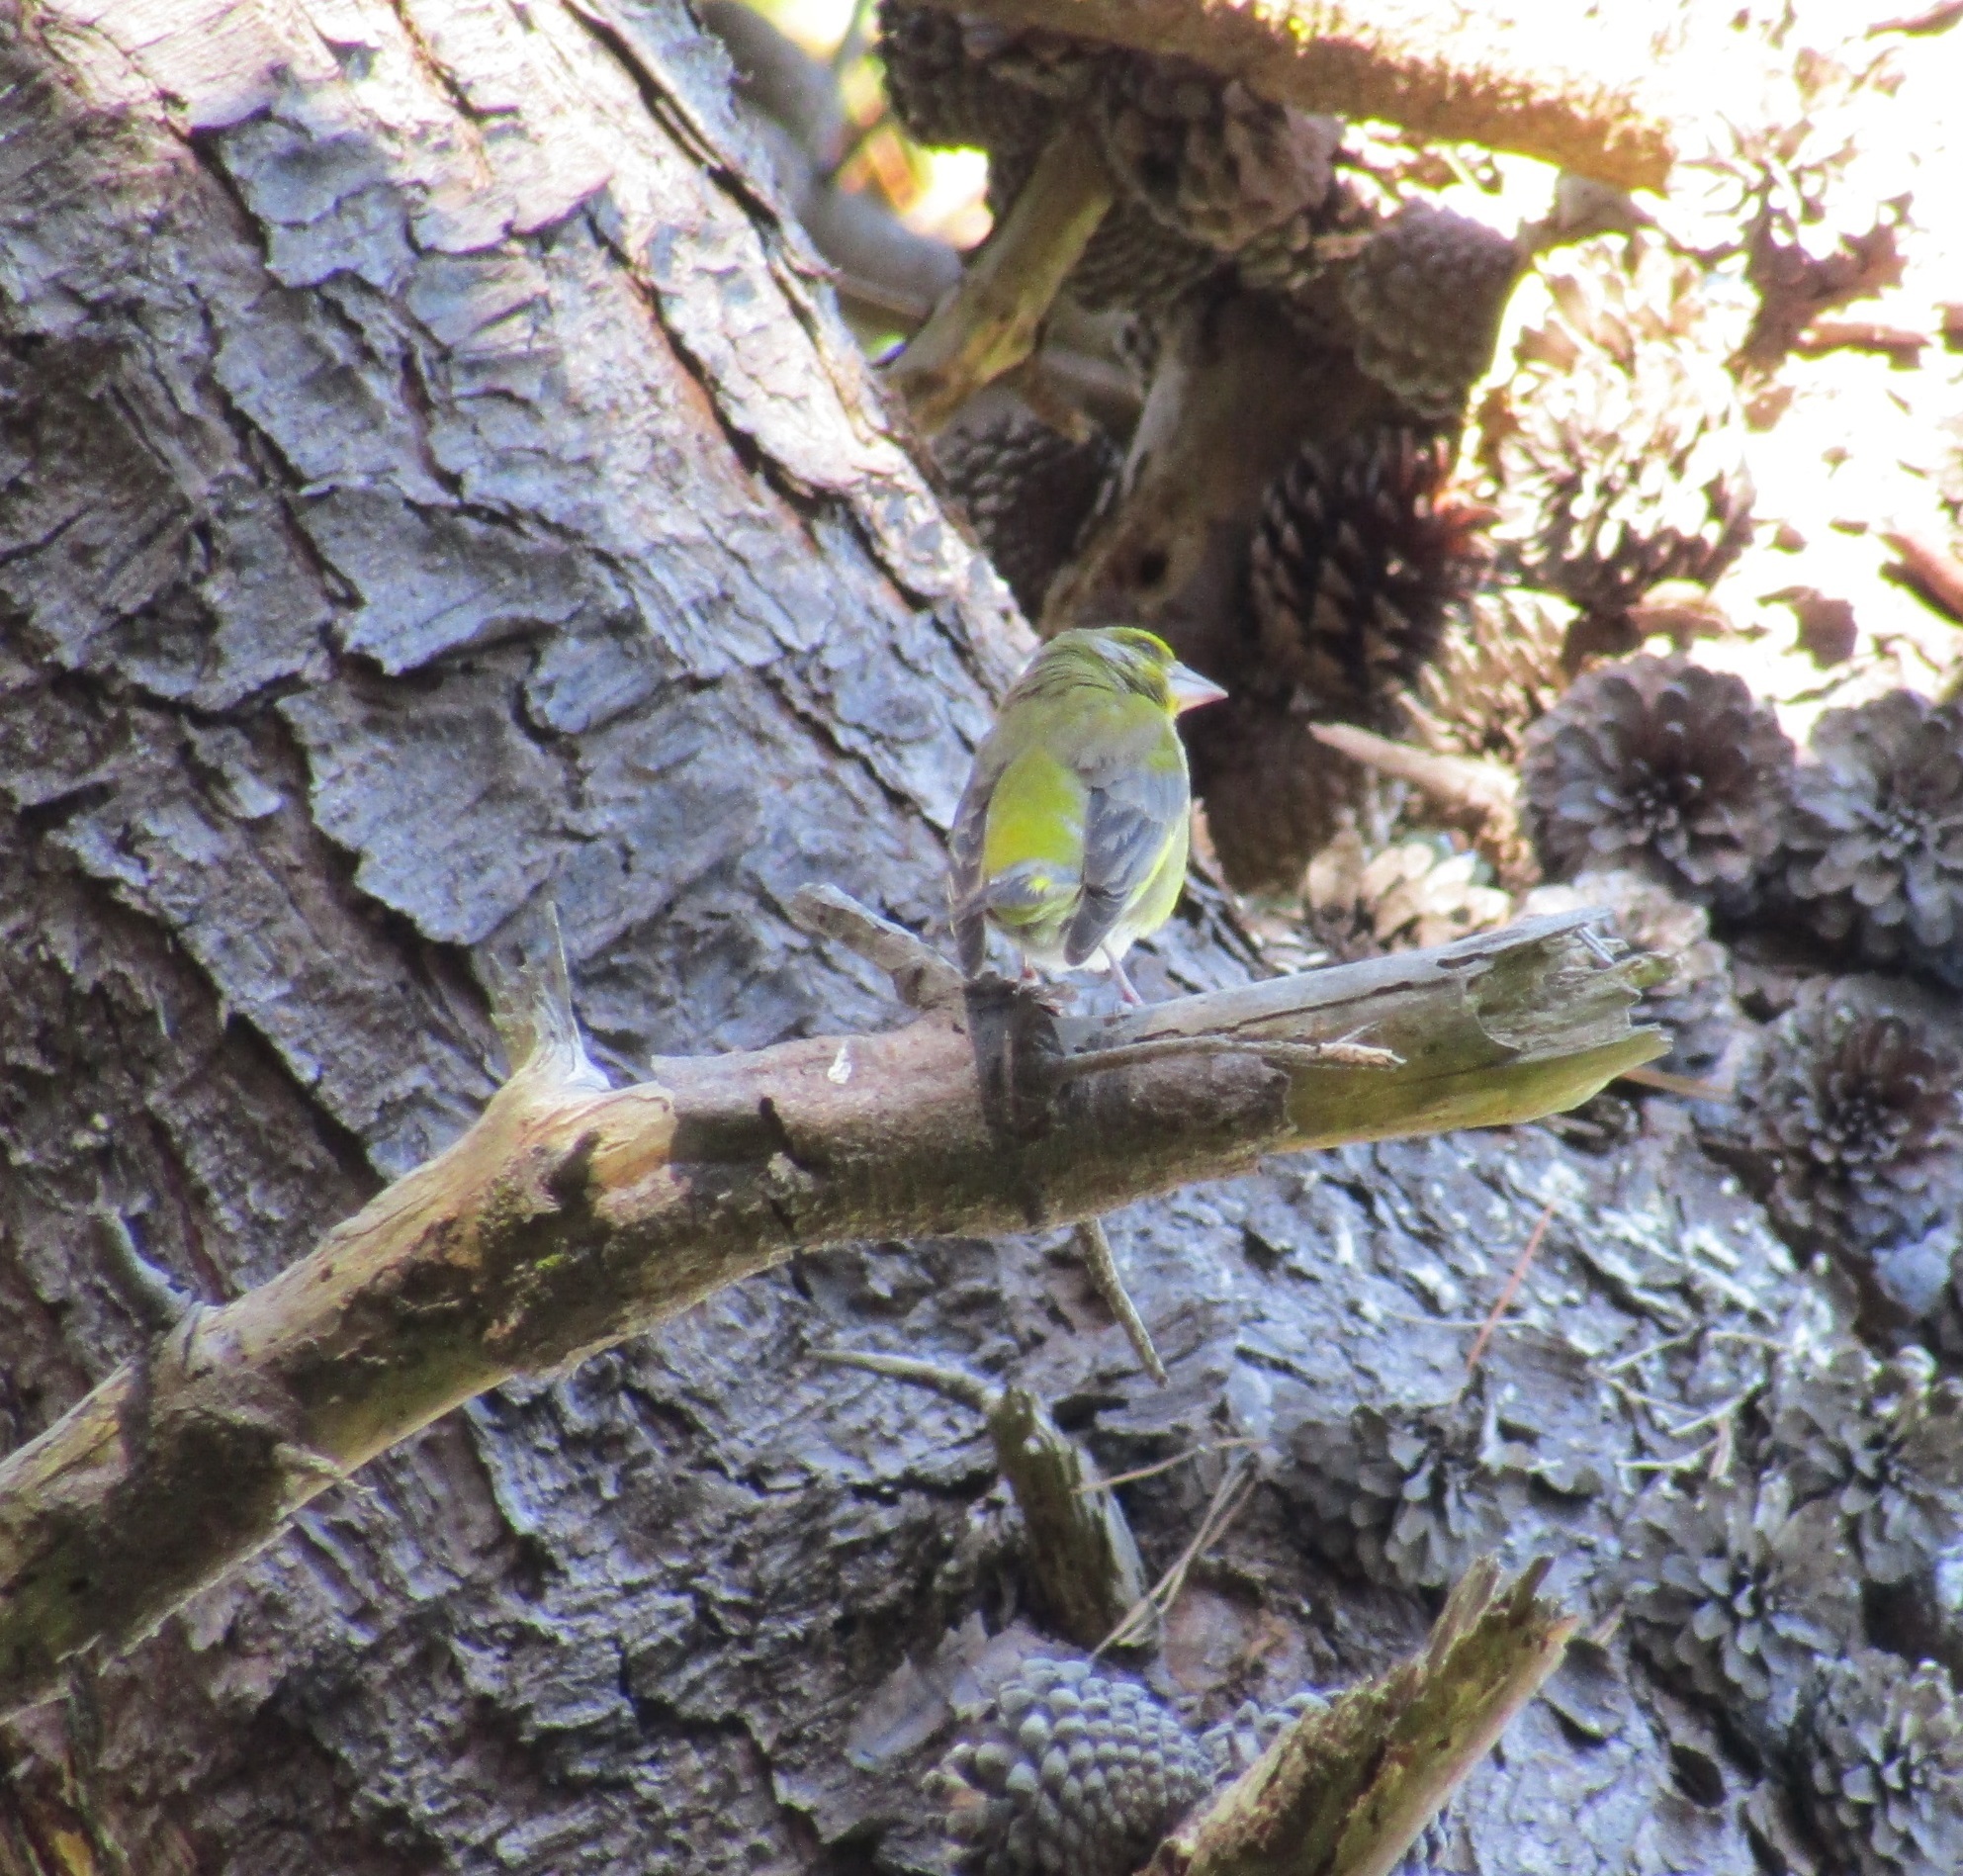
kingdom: Plantae
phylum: Tracheophyta
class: Liliopsida
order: Poales
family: Poaceae
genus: Chloris
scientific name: Chloris chloris
